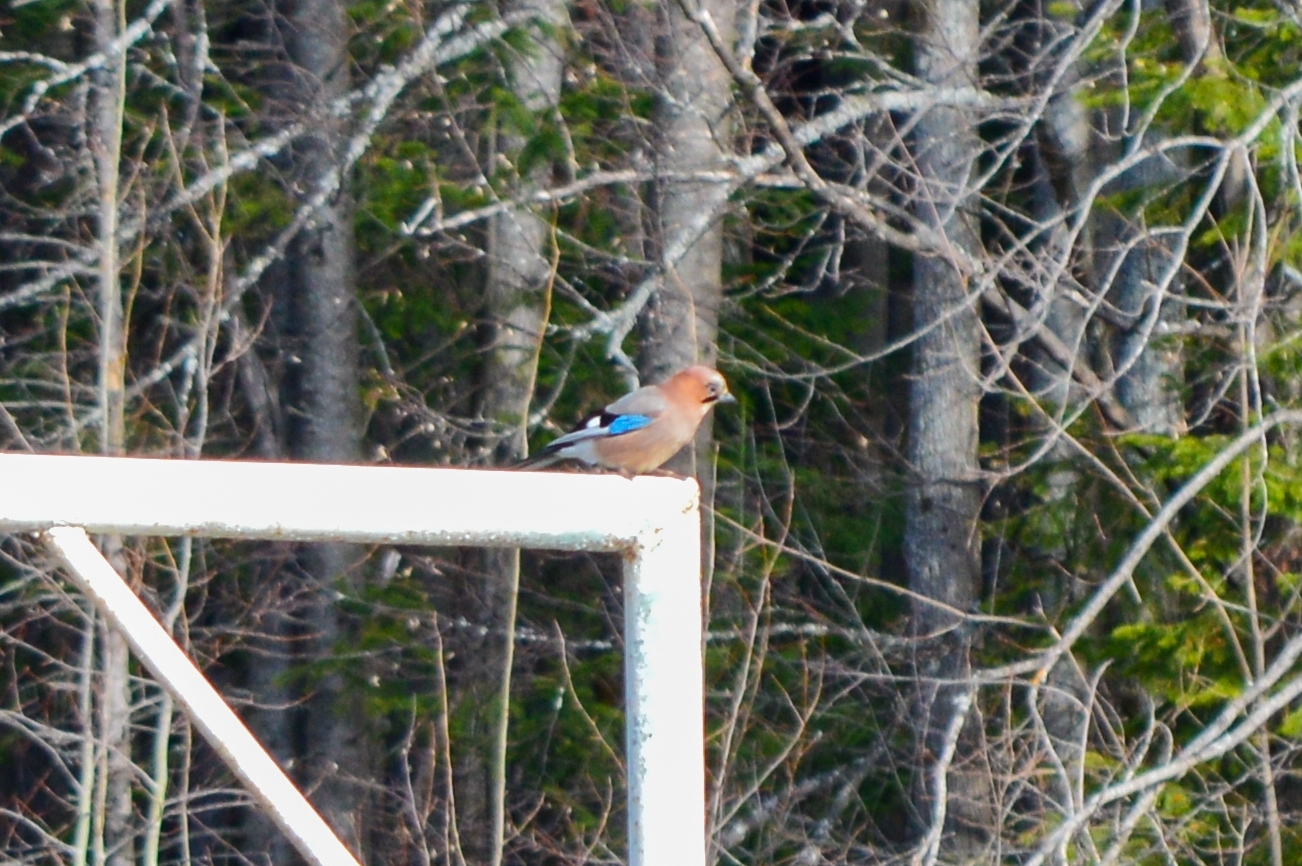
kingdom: Animalia
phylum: Chordata
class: Aves
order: Passeriformes
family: Corvidae
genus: Garrulus
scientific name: Garrulus glandarius
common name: Eurasian jay
